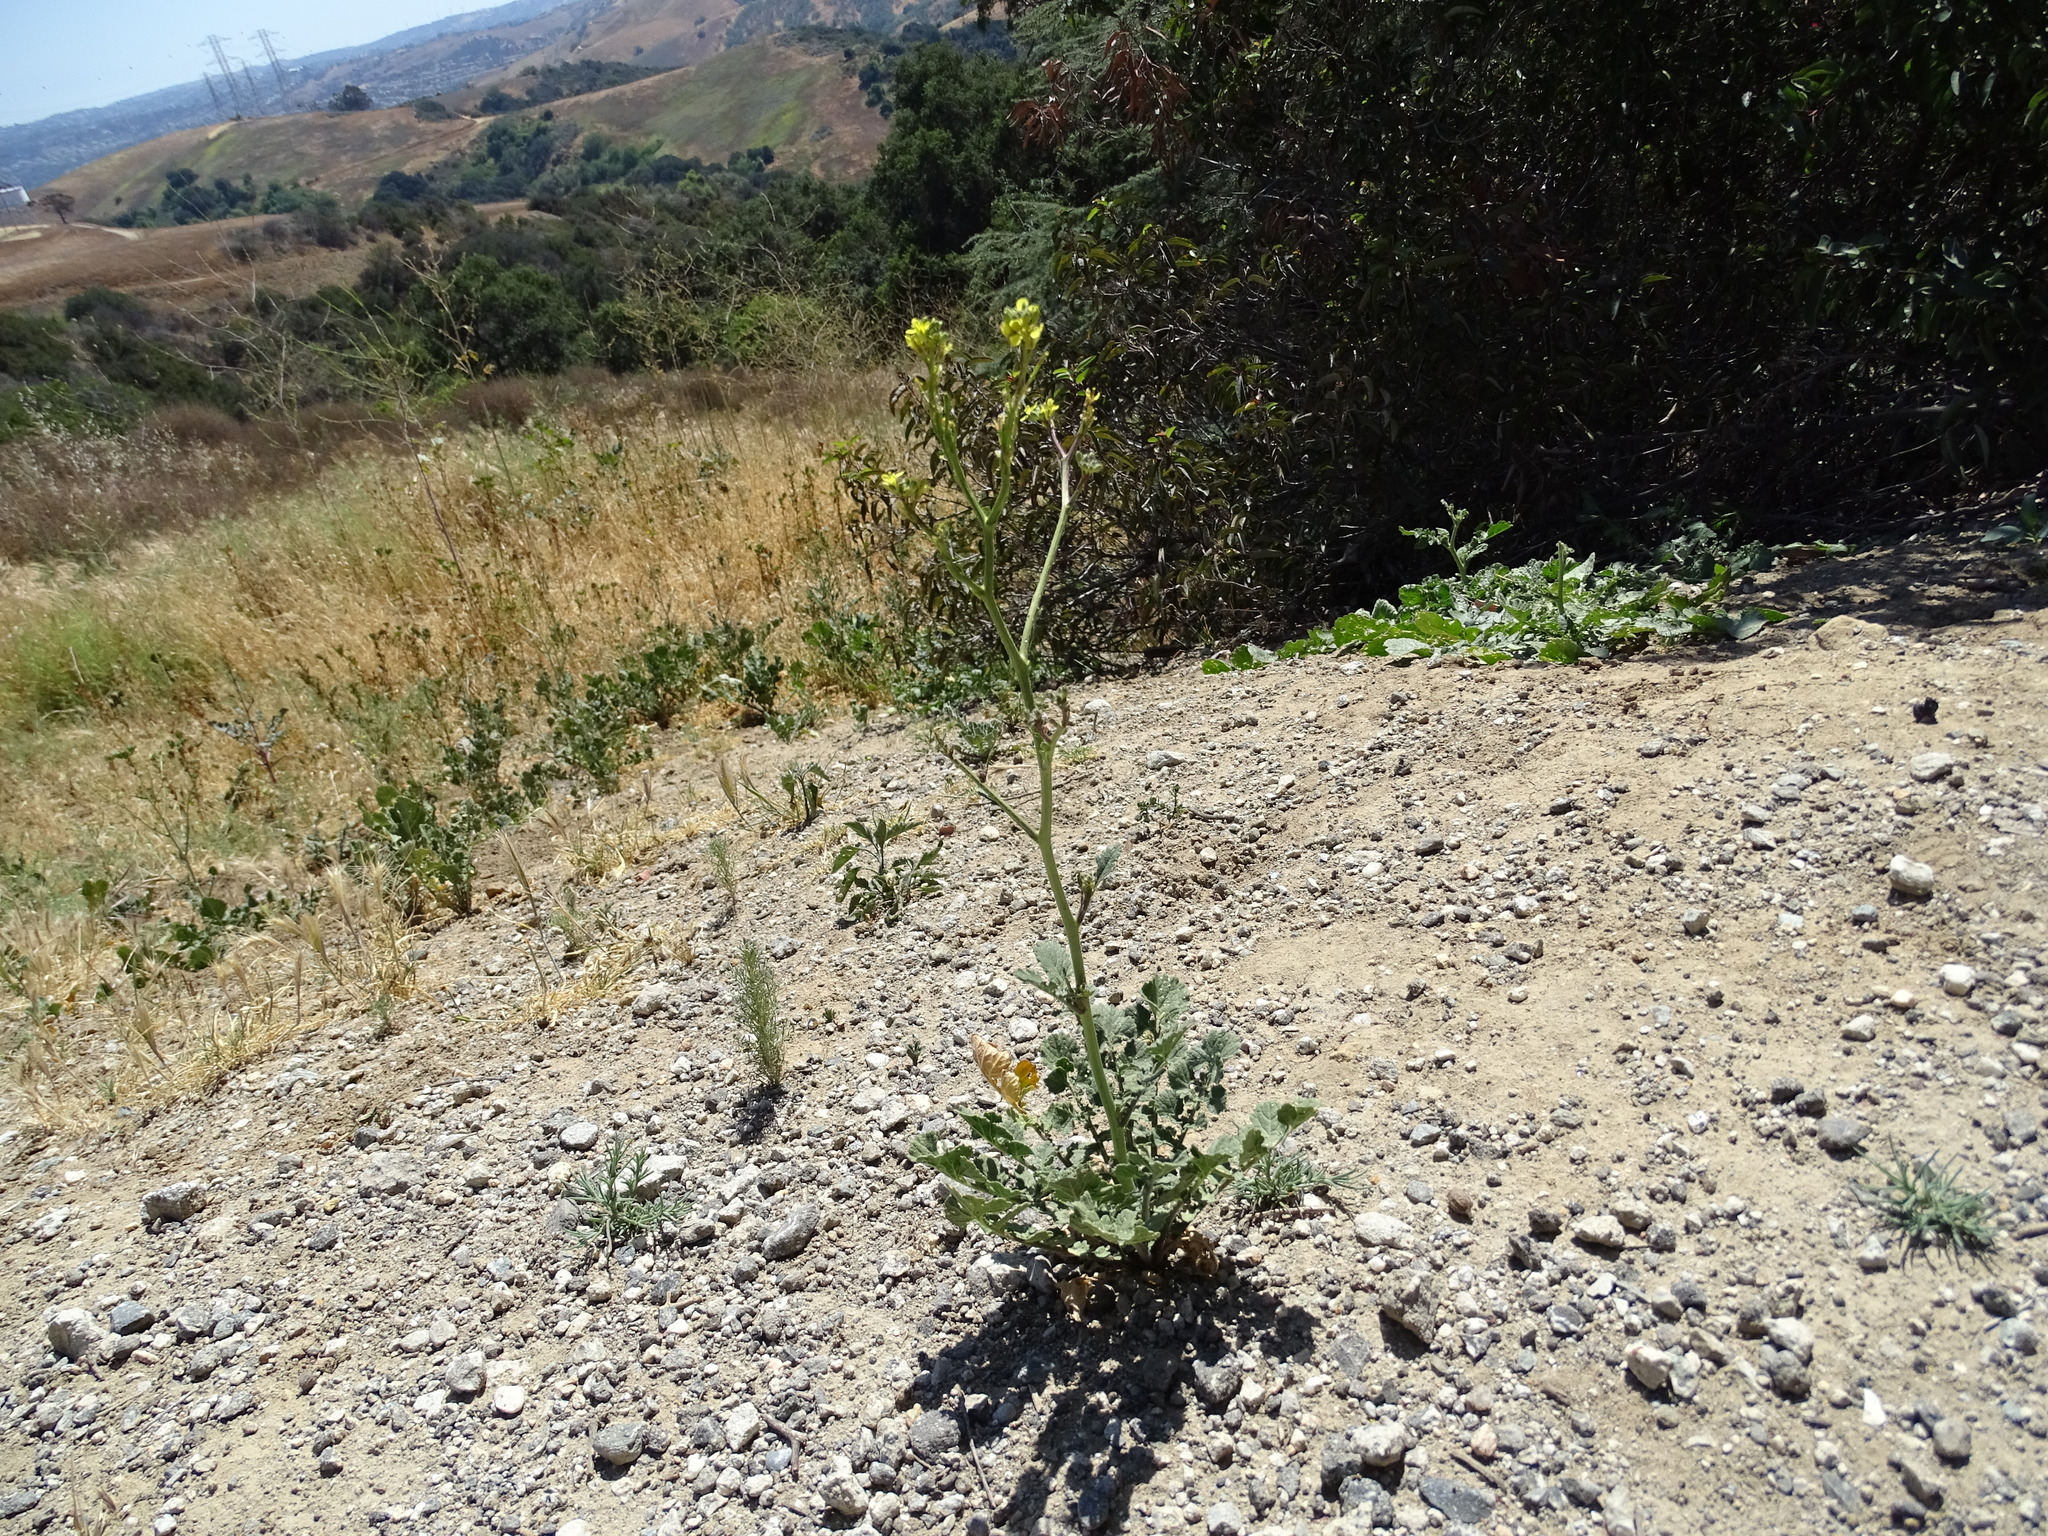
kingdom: Plantae
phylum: Tracheophyta
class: Magnoliopsida
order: Brassicales
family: Brassicaceae
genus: Hirschfeldia
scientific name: Hirschfeldia incana
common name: Hoary mustard
